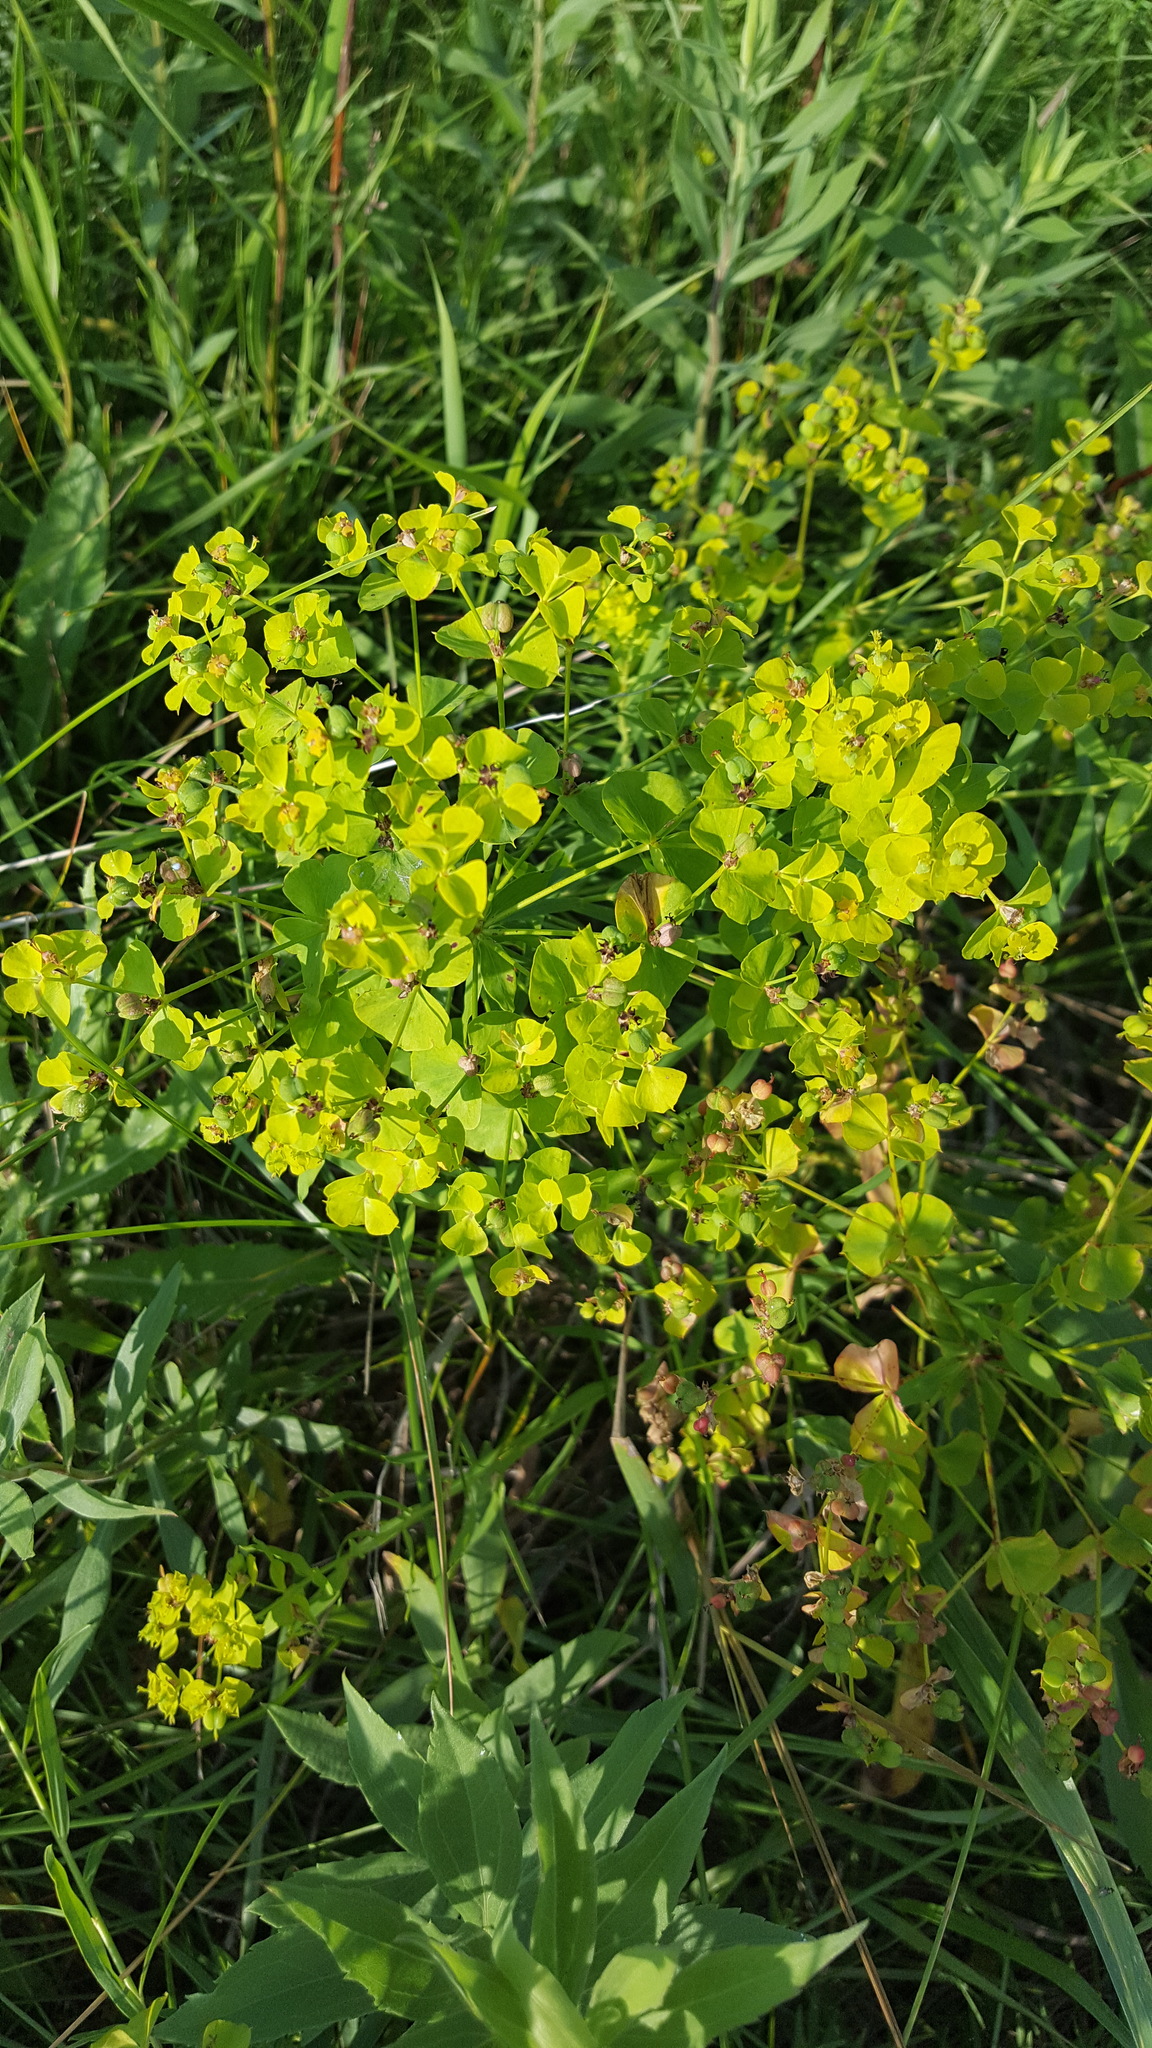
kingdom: Plantae
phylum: Tracheophyta
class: Magnoliopsida
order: Malpighiales
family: Euphorbiaceae
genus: Euphorbia
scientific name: Euphorbia virgata
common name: Leafy spurge
